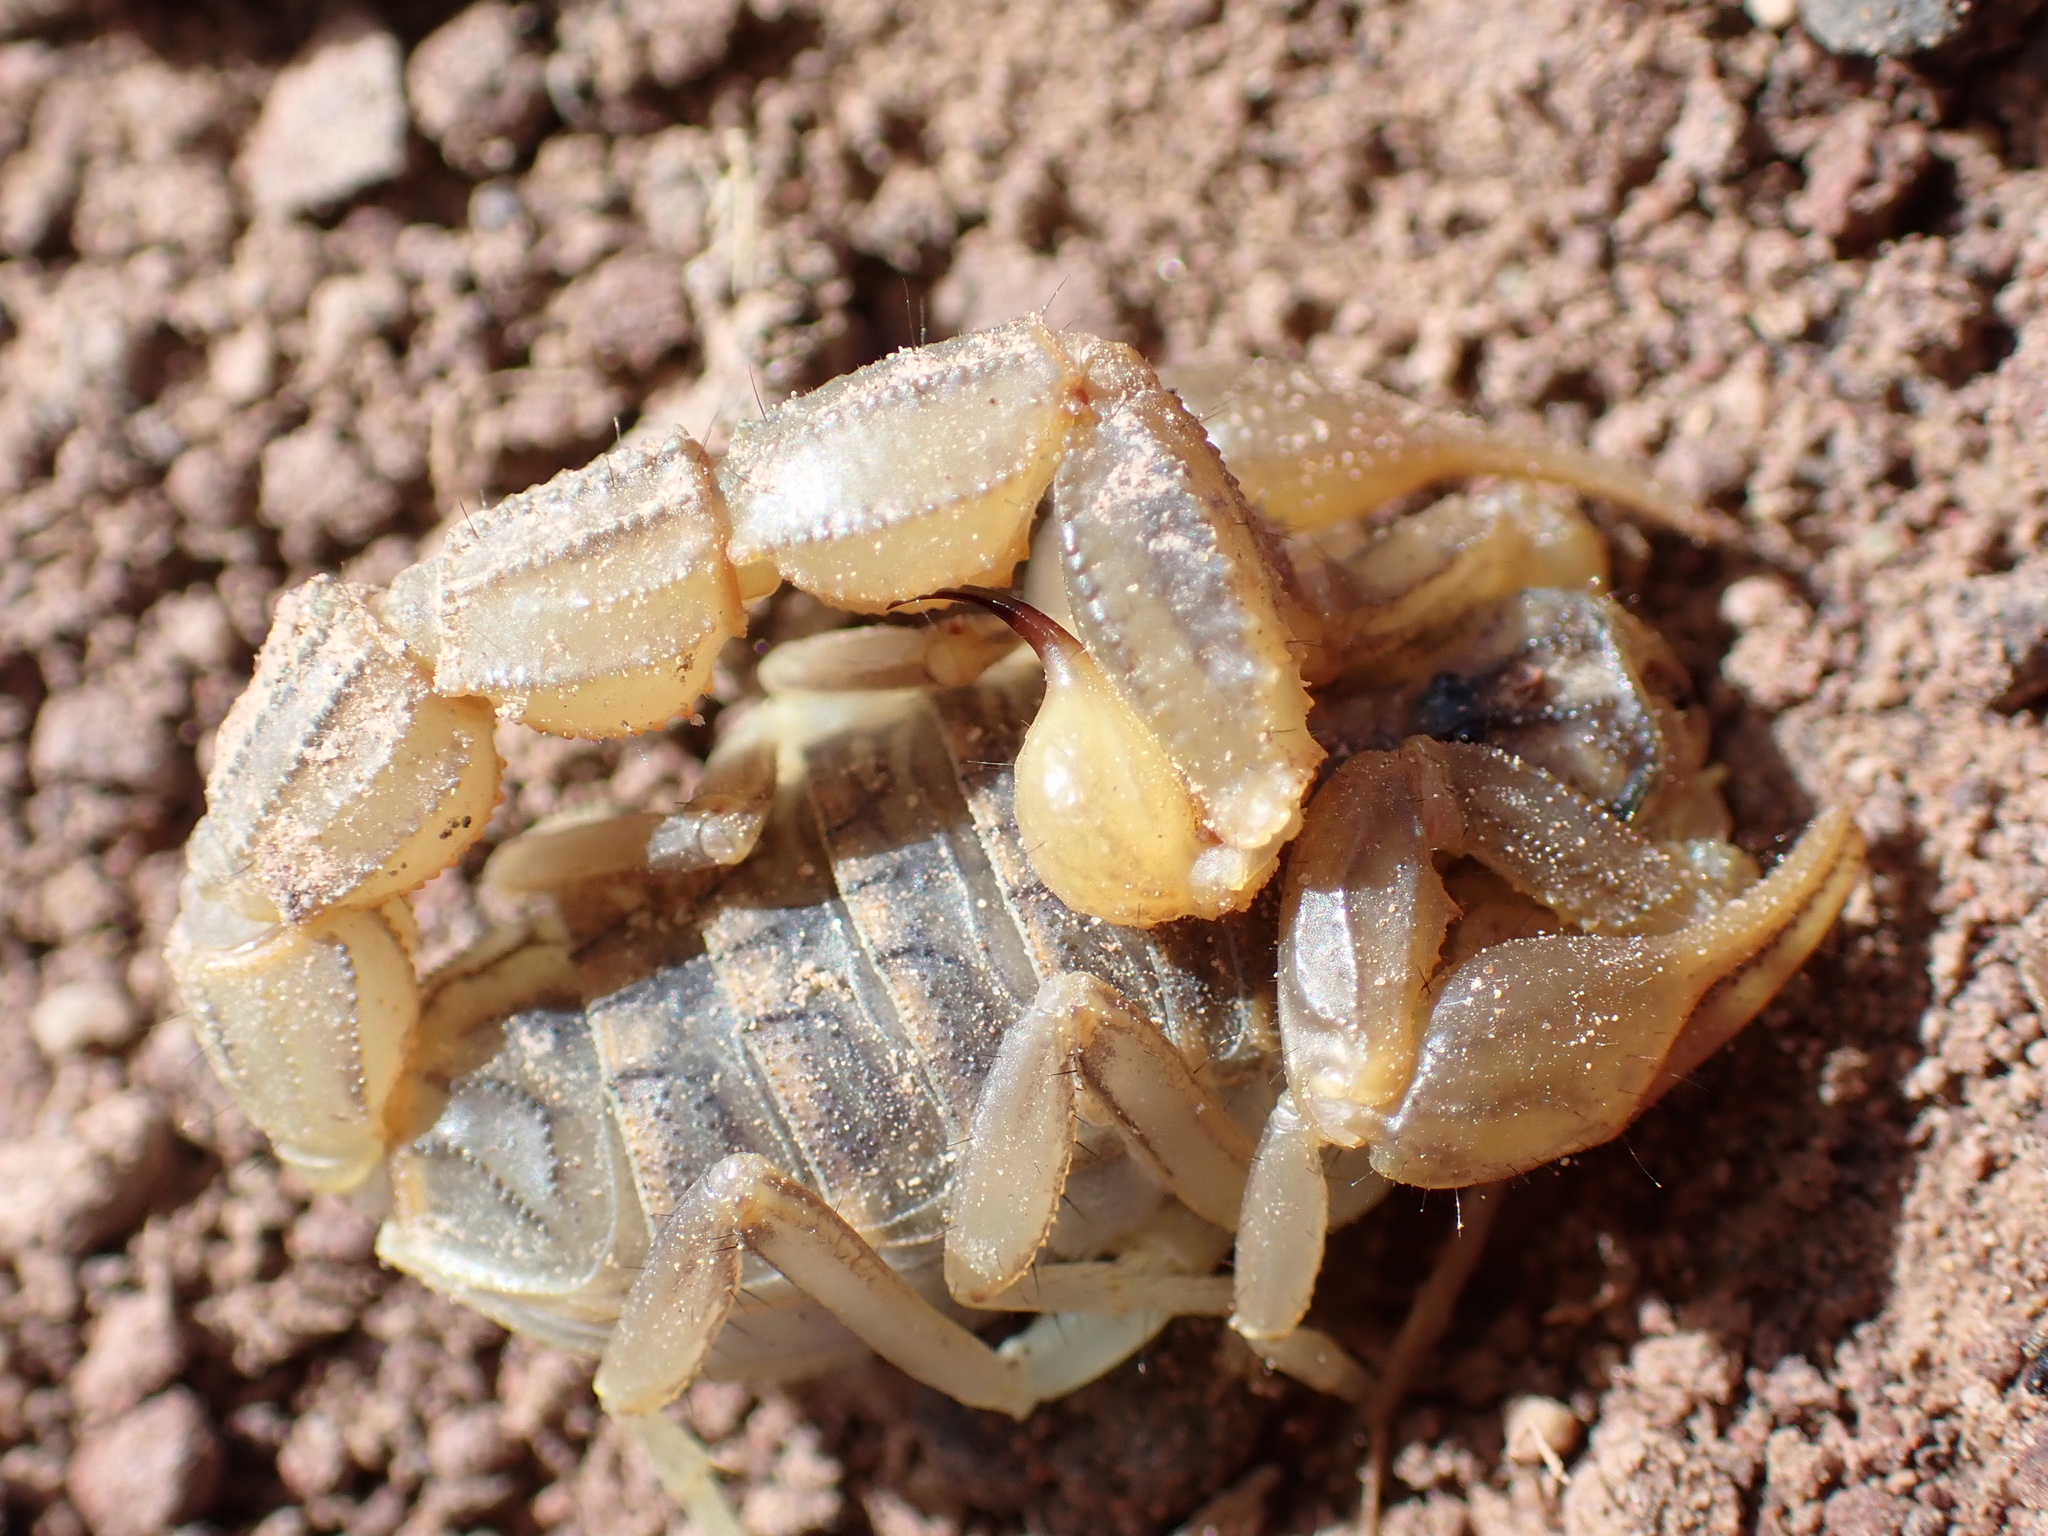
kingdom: Animalia
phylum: Arthropoda
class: Arachnida
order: Scorpiones
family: Buthidae
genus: Mesobuthus
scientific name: Mesobuthus afghanus
